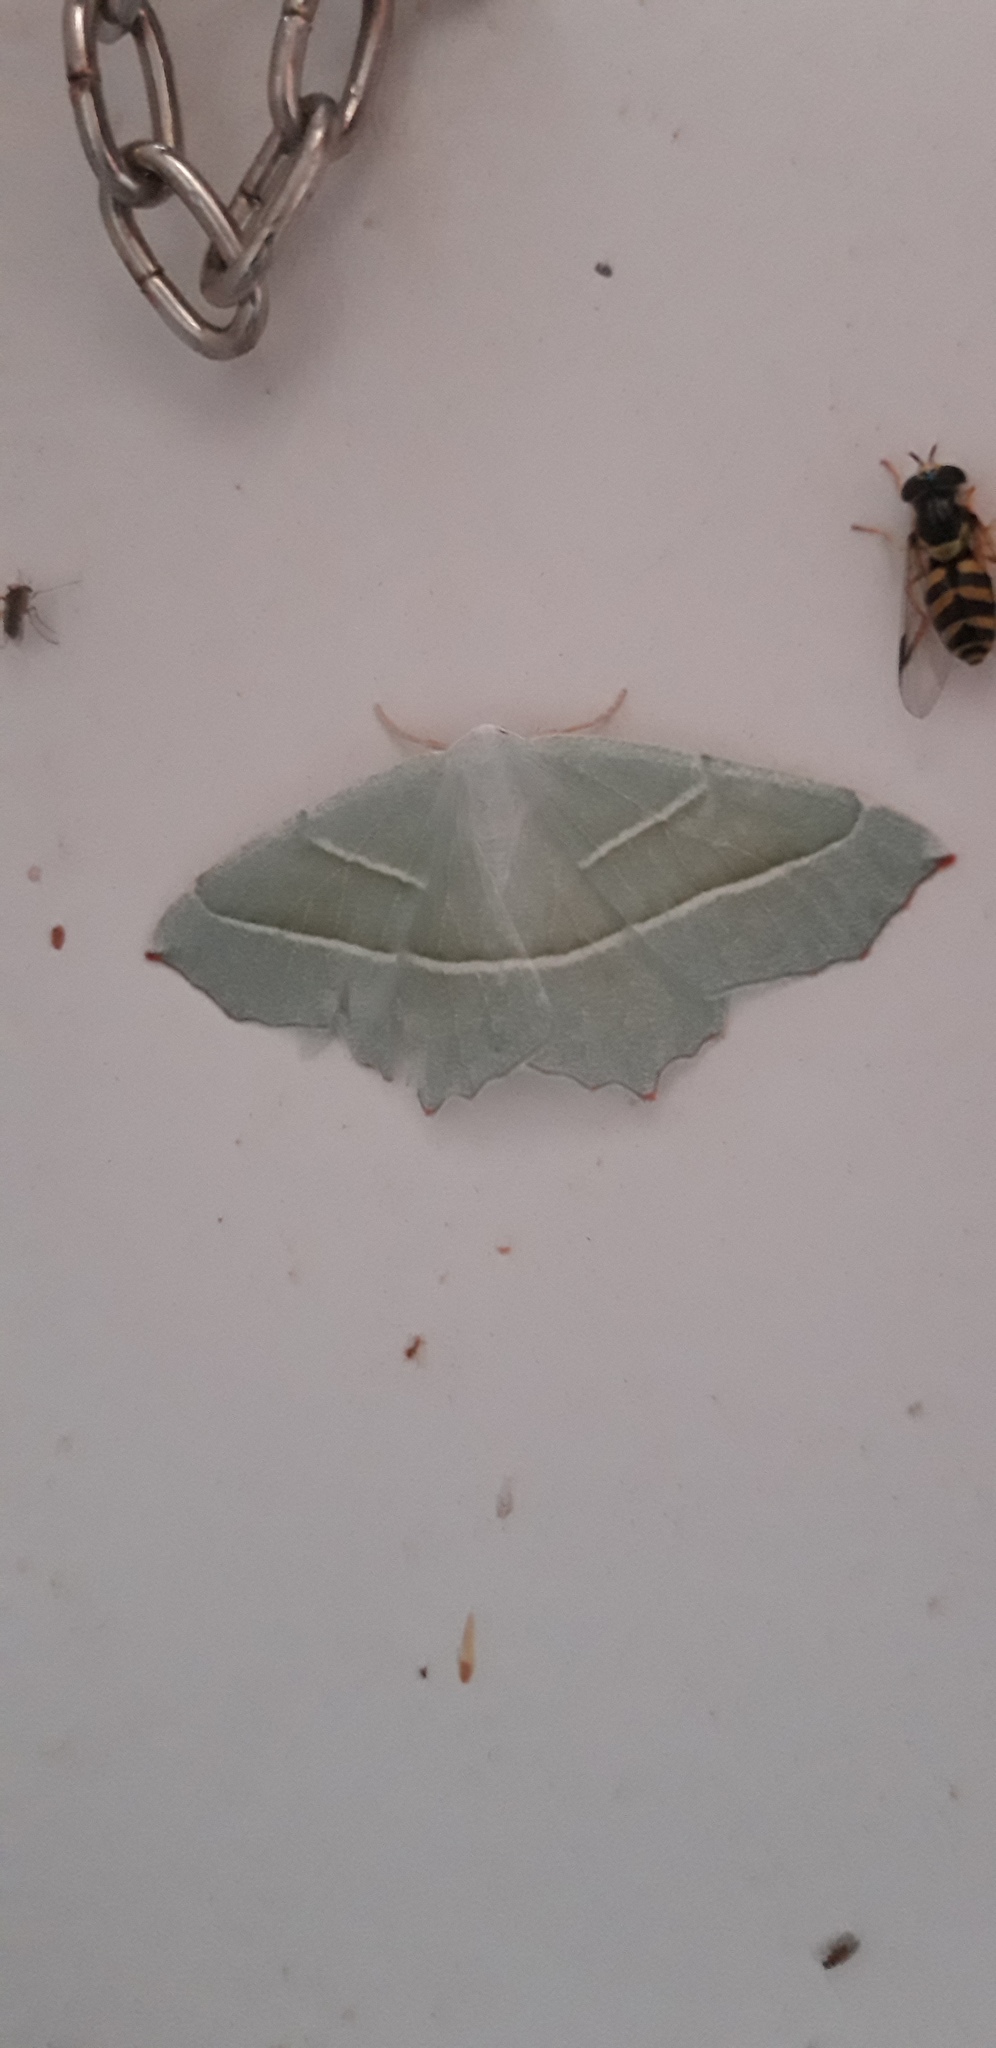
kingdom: Animalia
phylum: Arthropoda
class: Insecta
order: Lepidoptera
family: Geometridae
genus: Campaea
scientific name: Campaea margaritaria
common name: Light emerald
